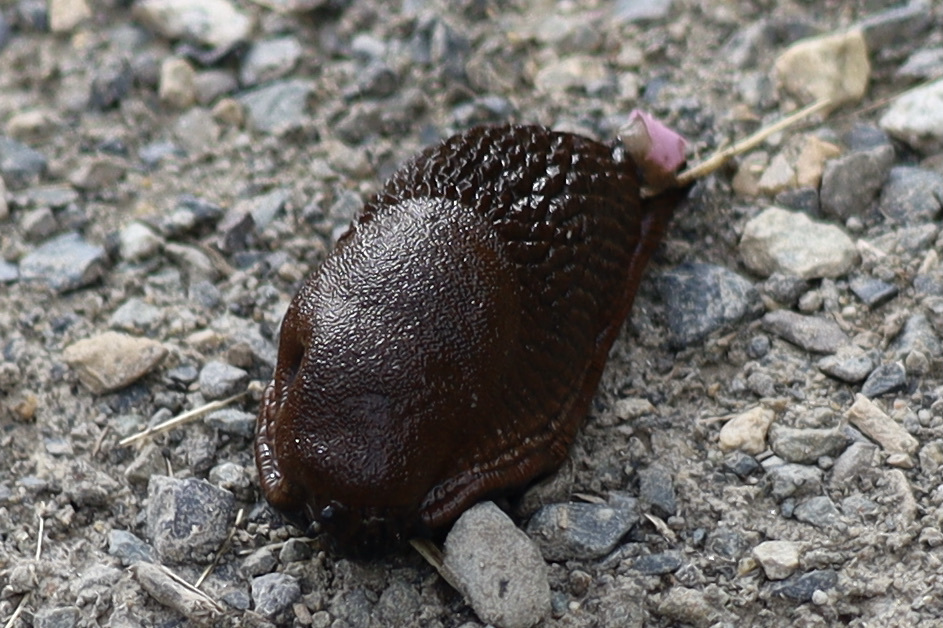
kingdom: Animalia
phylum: Mollusca
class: Gastropoda
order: Stylommatophora
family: Arionidae
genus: Arion
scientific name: Arion
